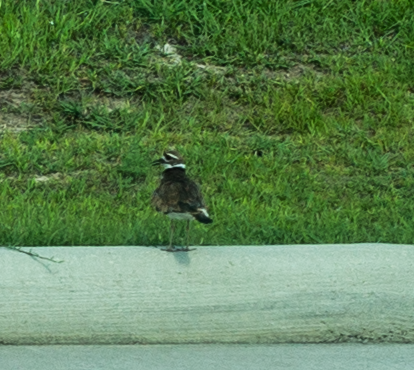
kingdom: Animalia
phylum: Chordata
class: Aves
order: Charadriiformes
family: Charadriidae
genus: Charadrius
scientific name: Charadrius vociferus
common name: Killdeer
